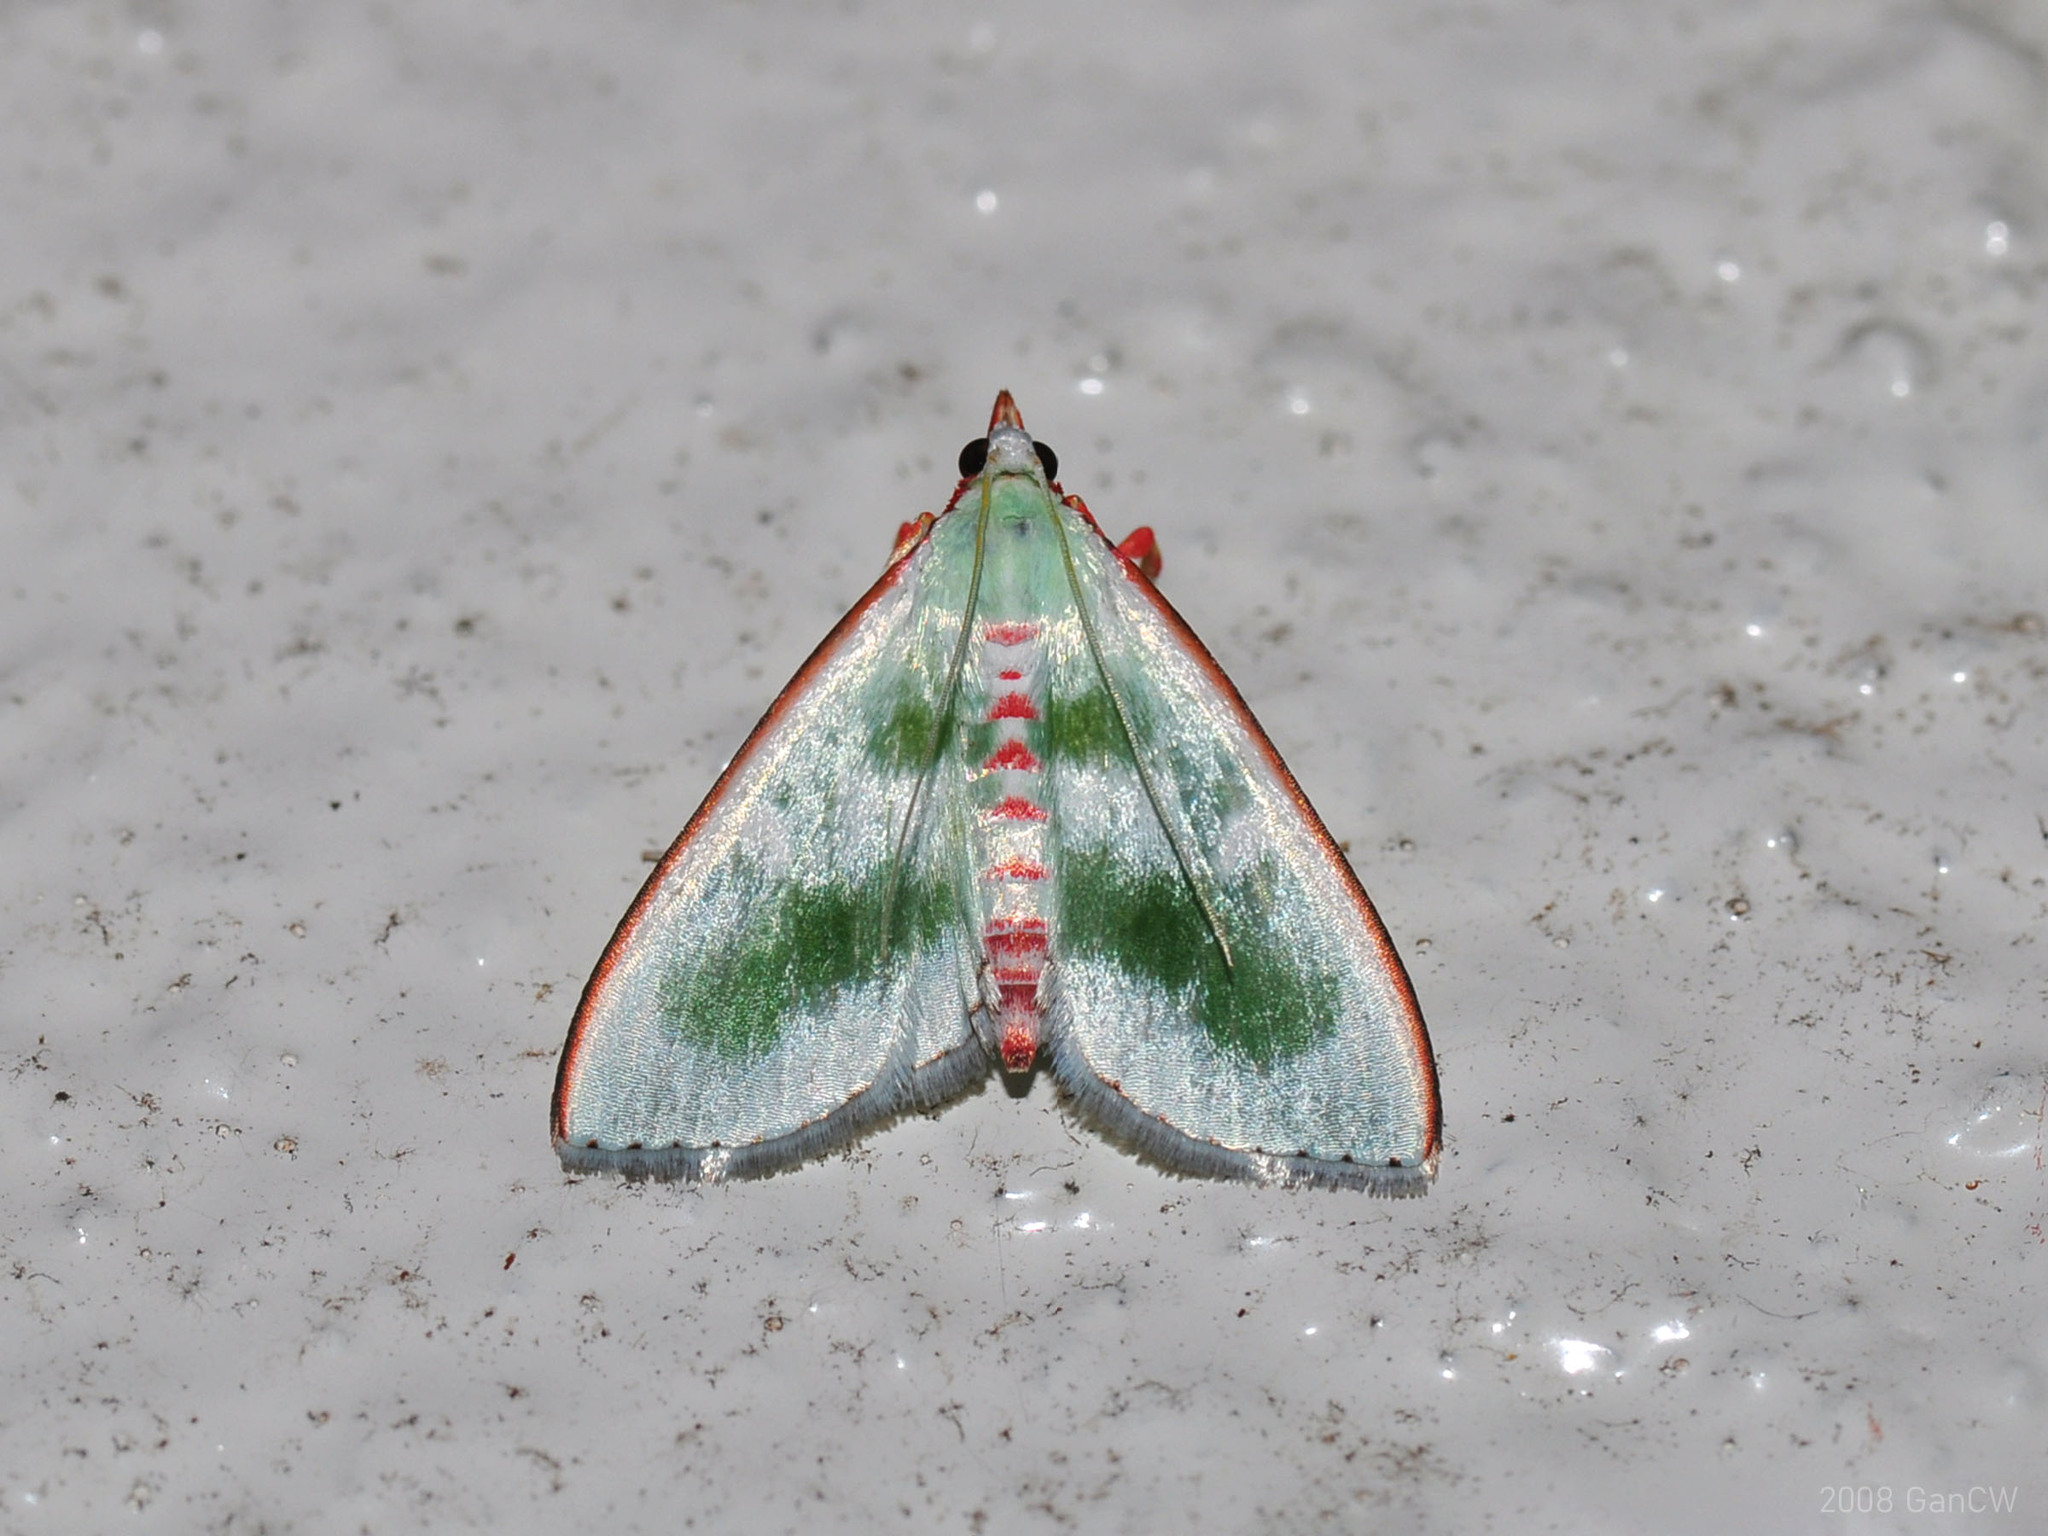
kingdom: Animalia
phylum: Arthropoda
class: Insecta
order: Lepidoptera
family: Crambidae
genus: Arthroschista
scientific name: Arthroschista tricoloralis
